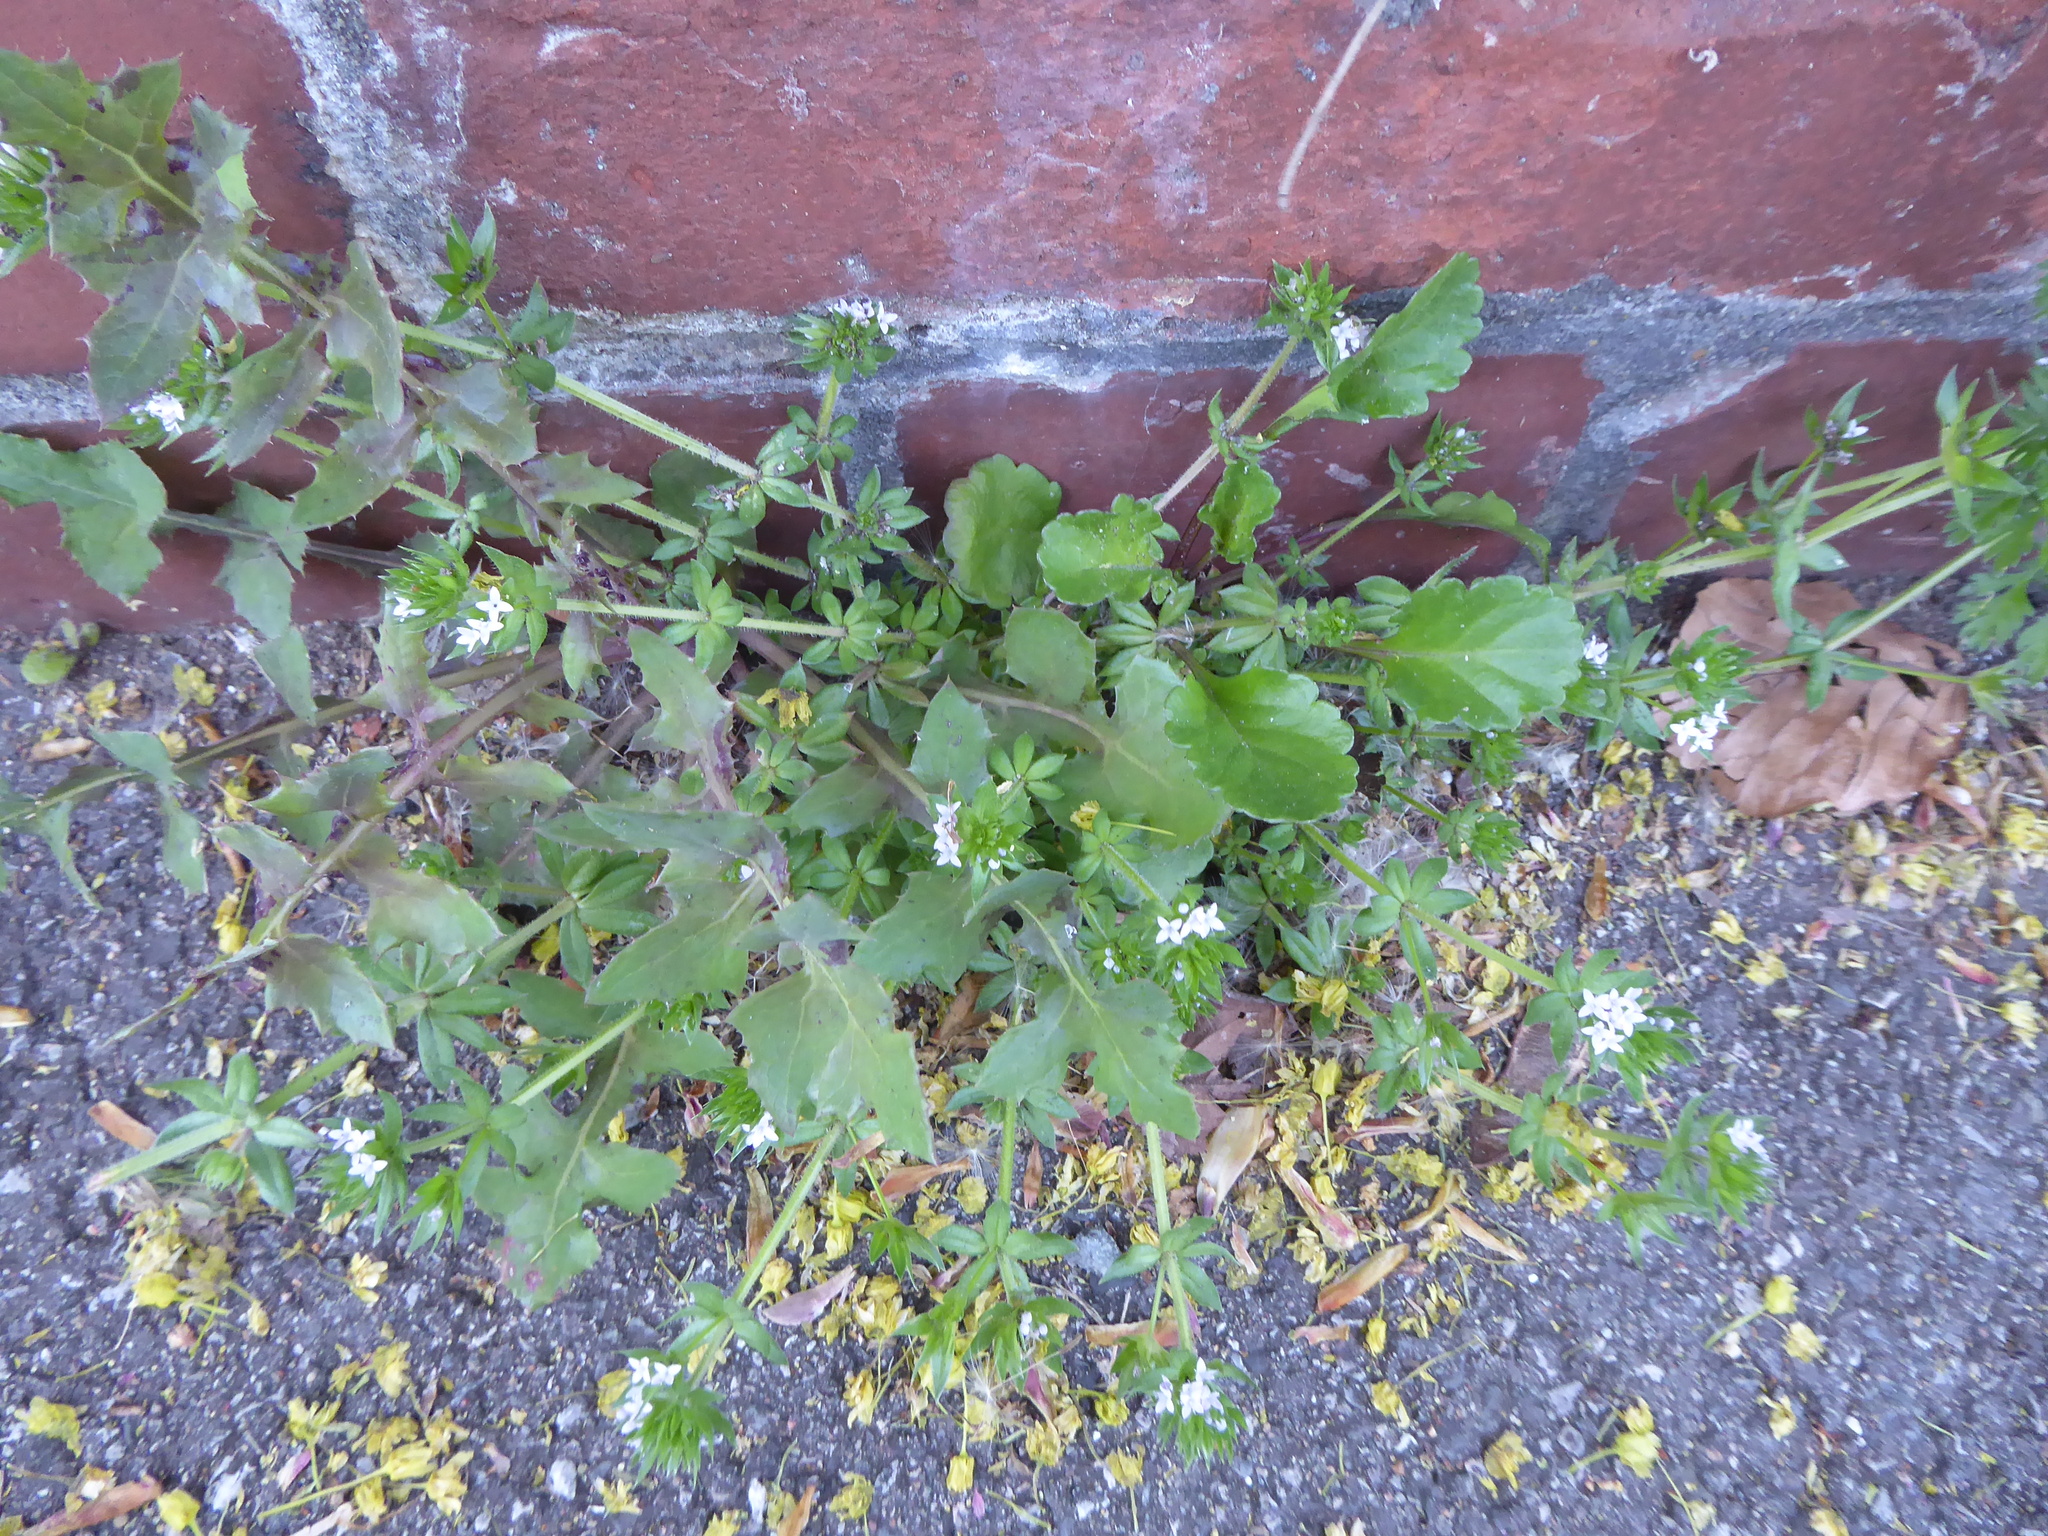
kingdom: Plantae
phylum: Tracheophyta
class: Magnoliopsida
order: Gentianales
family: Rubiaceae
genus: Sherardia
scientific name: Sherardia arvensis
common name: Field madder
